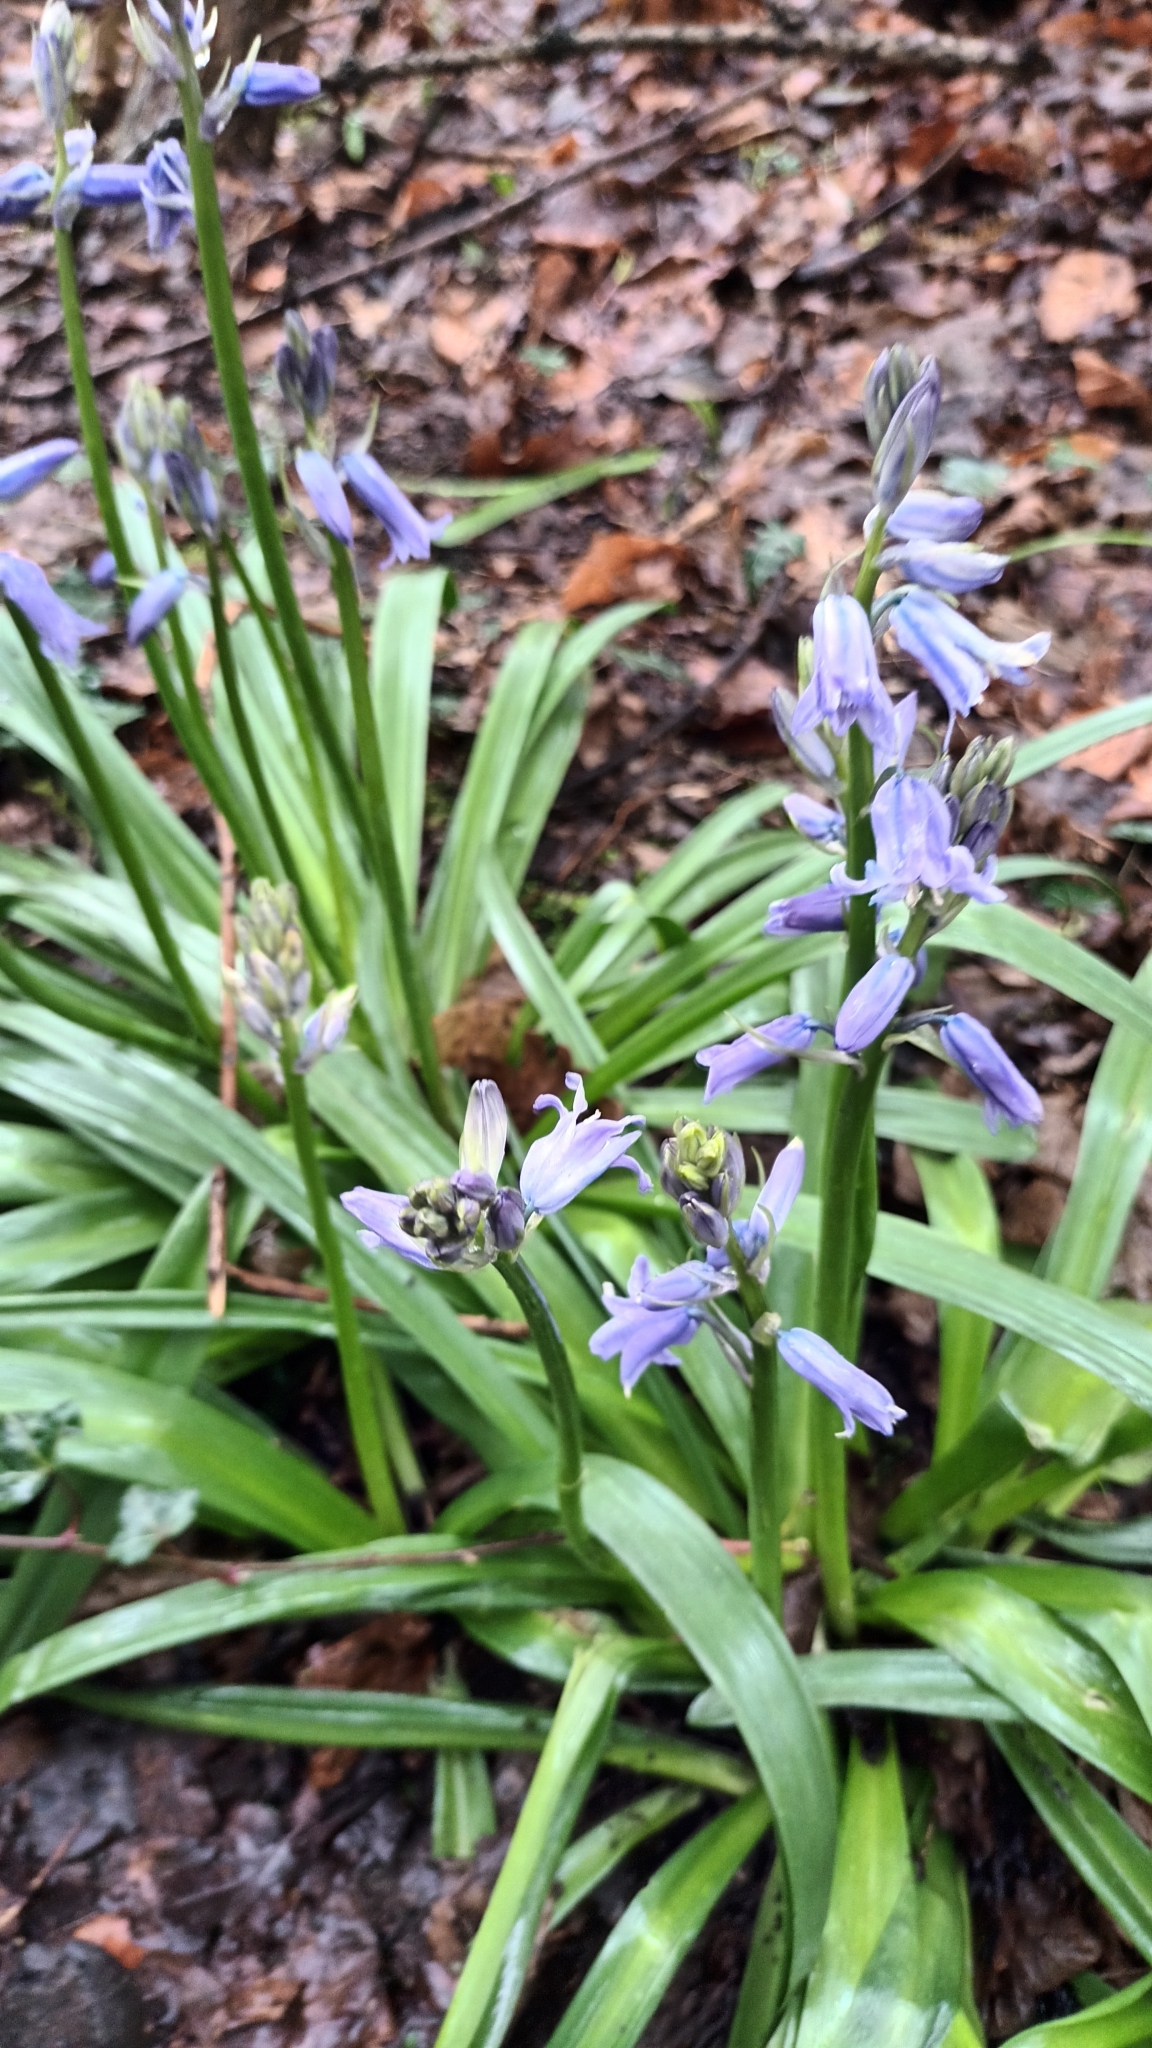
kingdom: Plantae
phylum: Tracheophyta
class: Liliopsida
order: Asparagales
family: Asparagaceae
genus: Hyacinthoides
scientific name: Hyacinthoides hispanica
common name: Spanish bluebell
